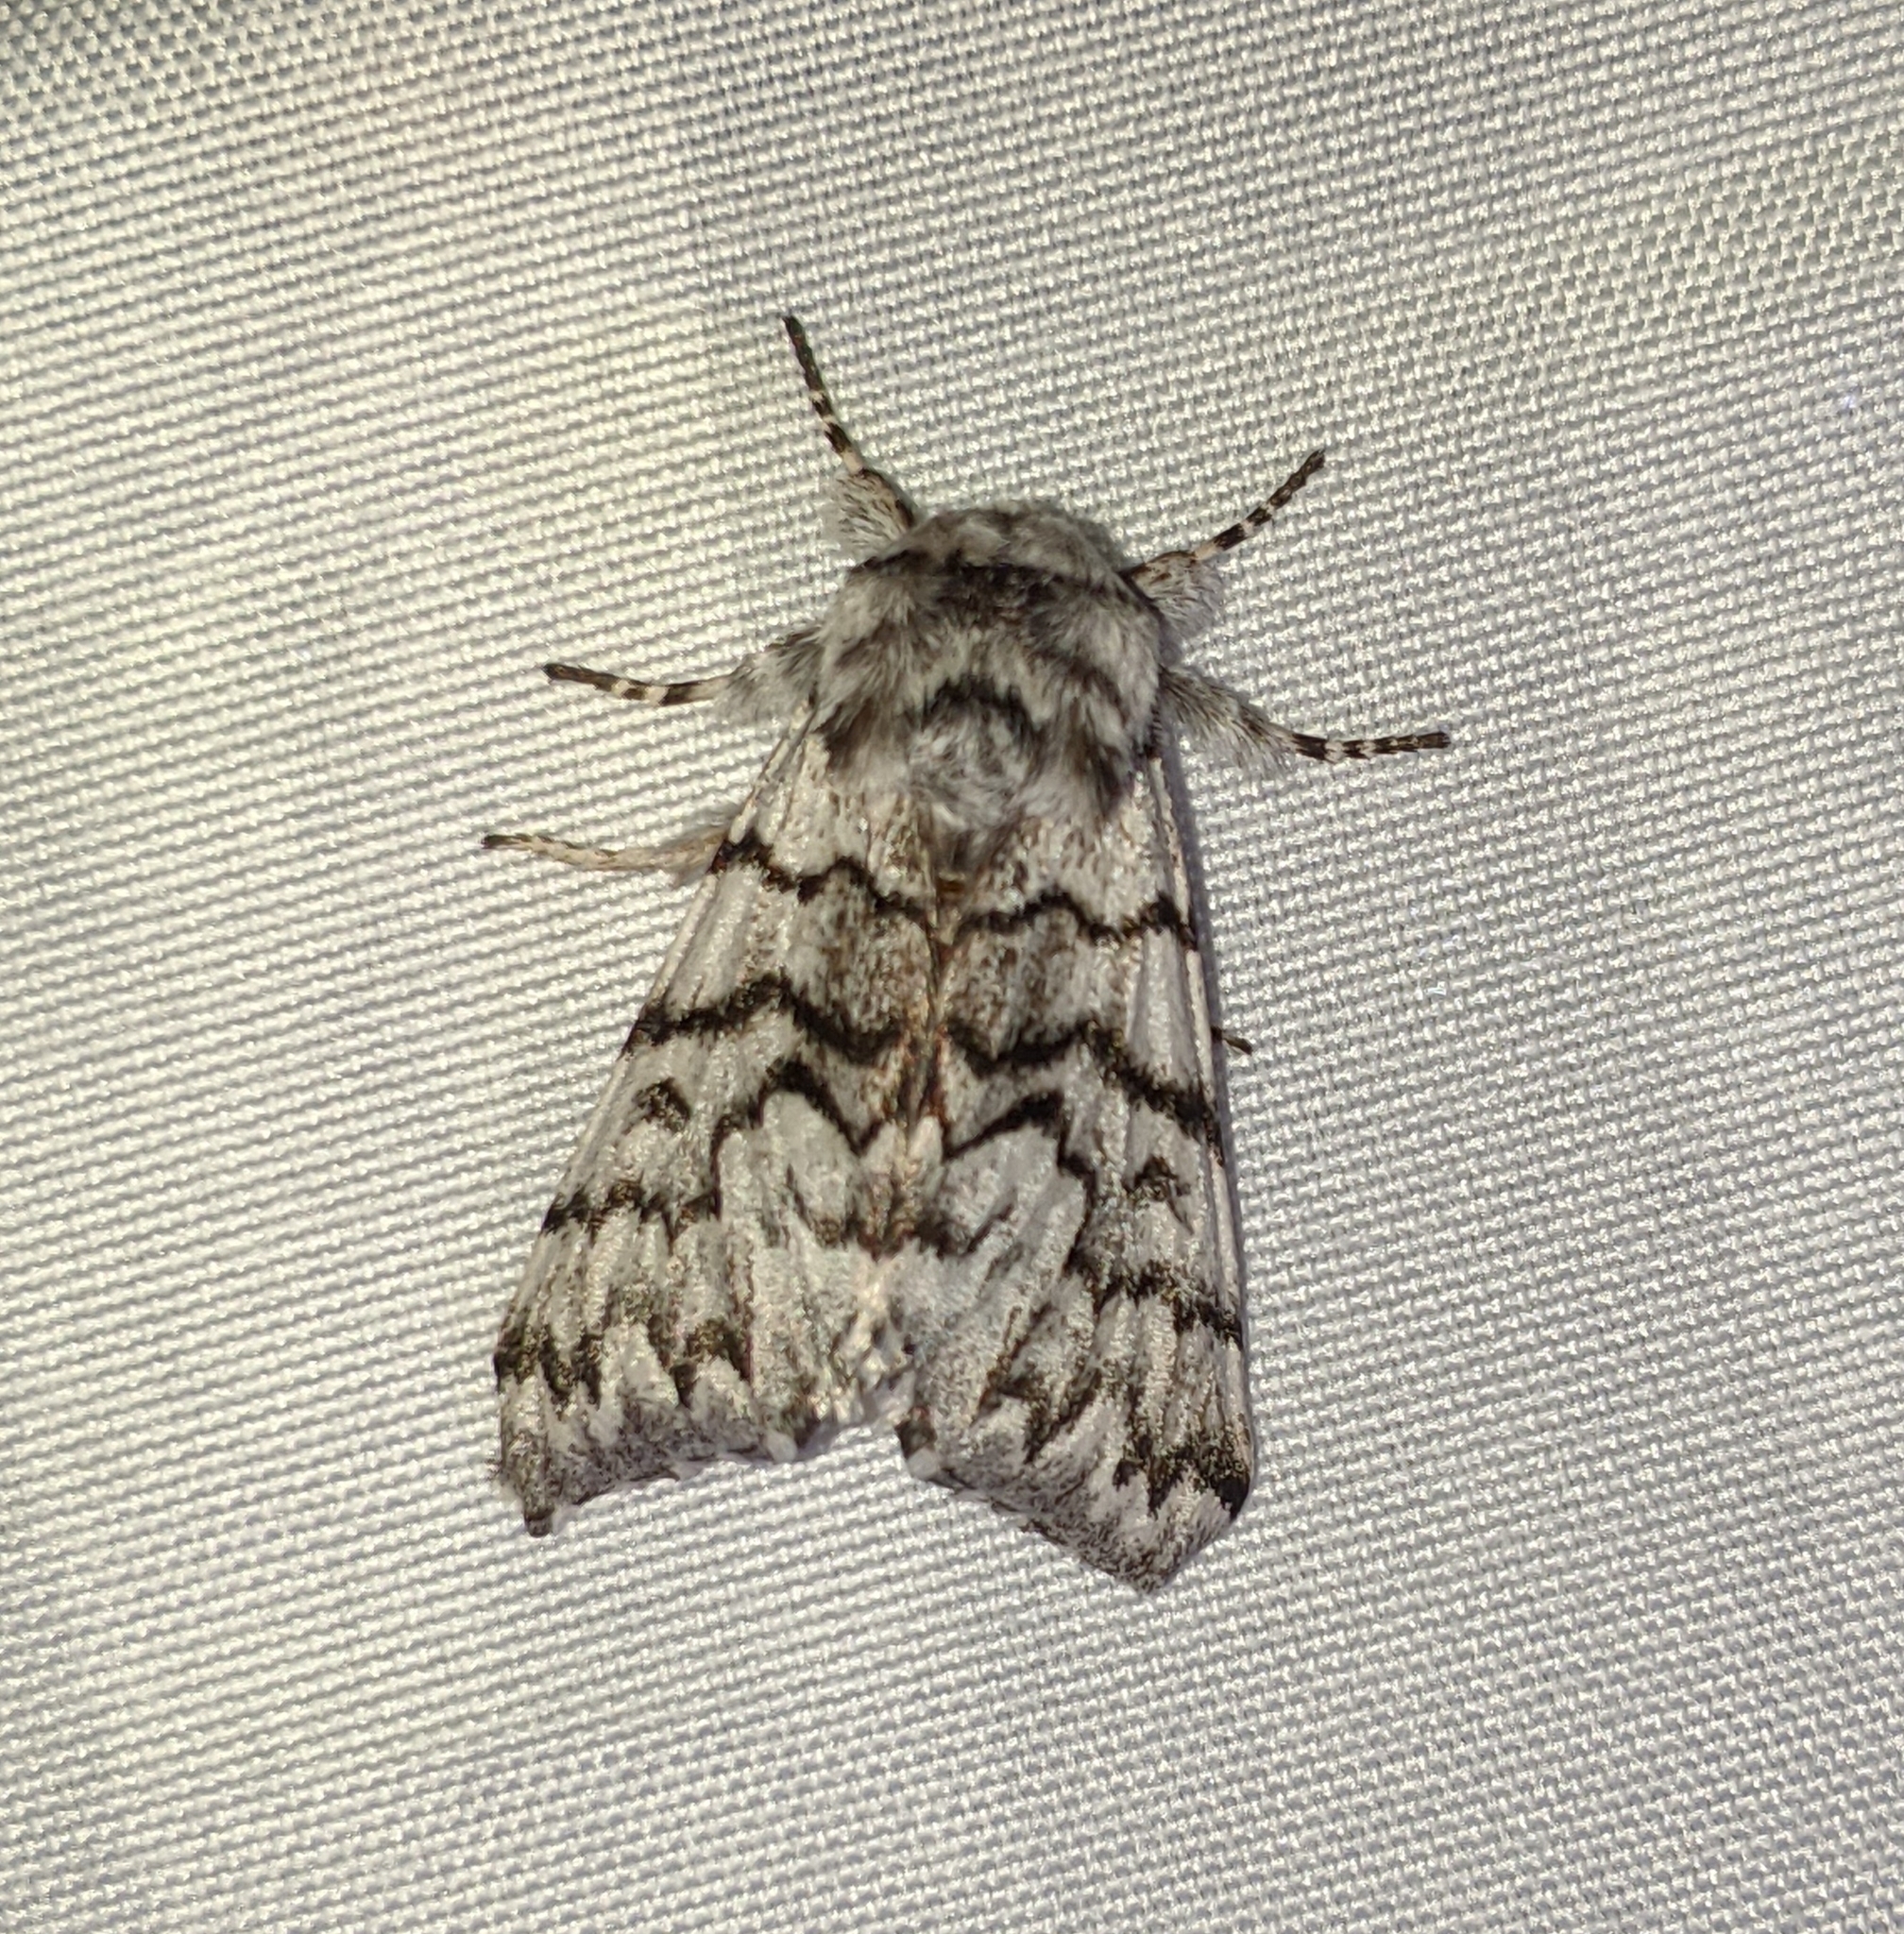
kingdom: Animalia
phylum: Arthropoda
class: Insecta
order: Lepidoptera
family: Noctuidae
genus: Panthea
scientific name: Panthea virginarius
